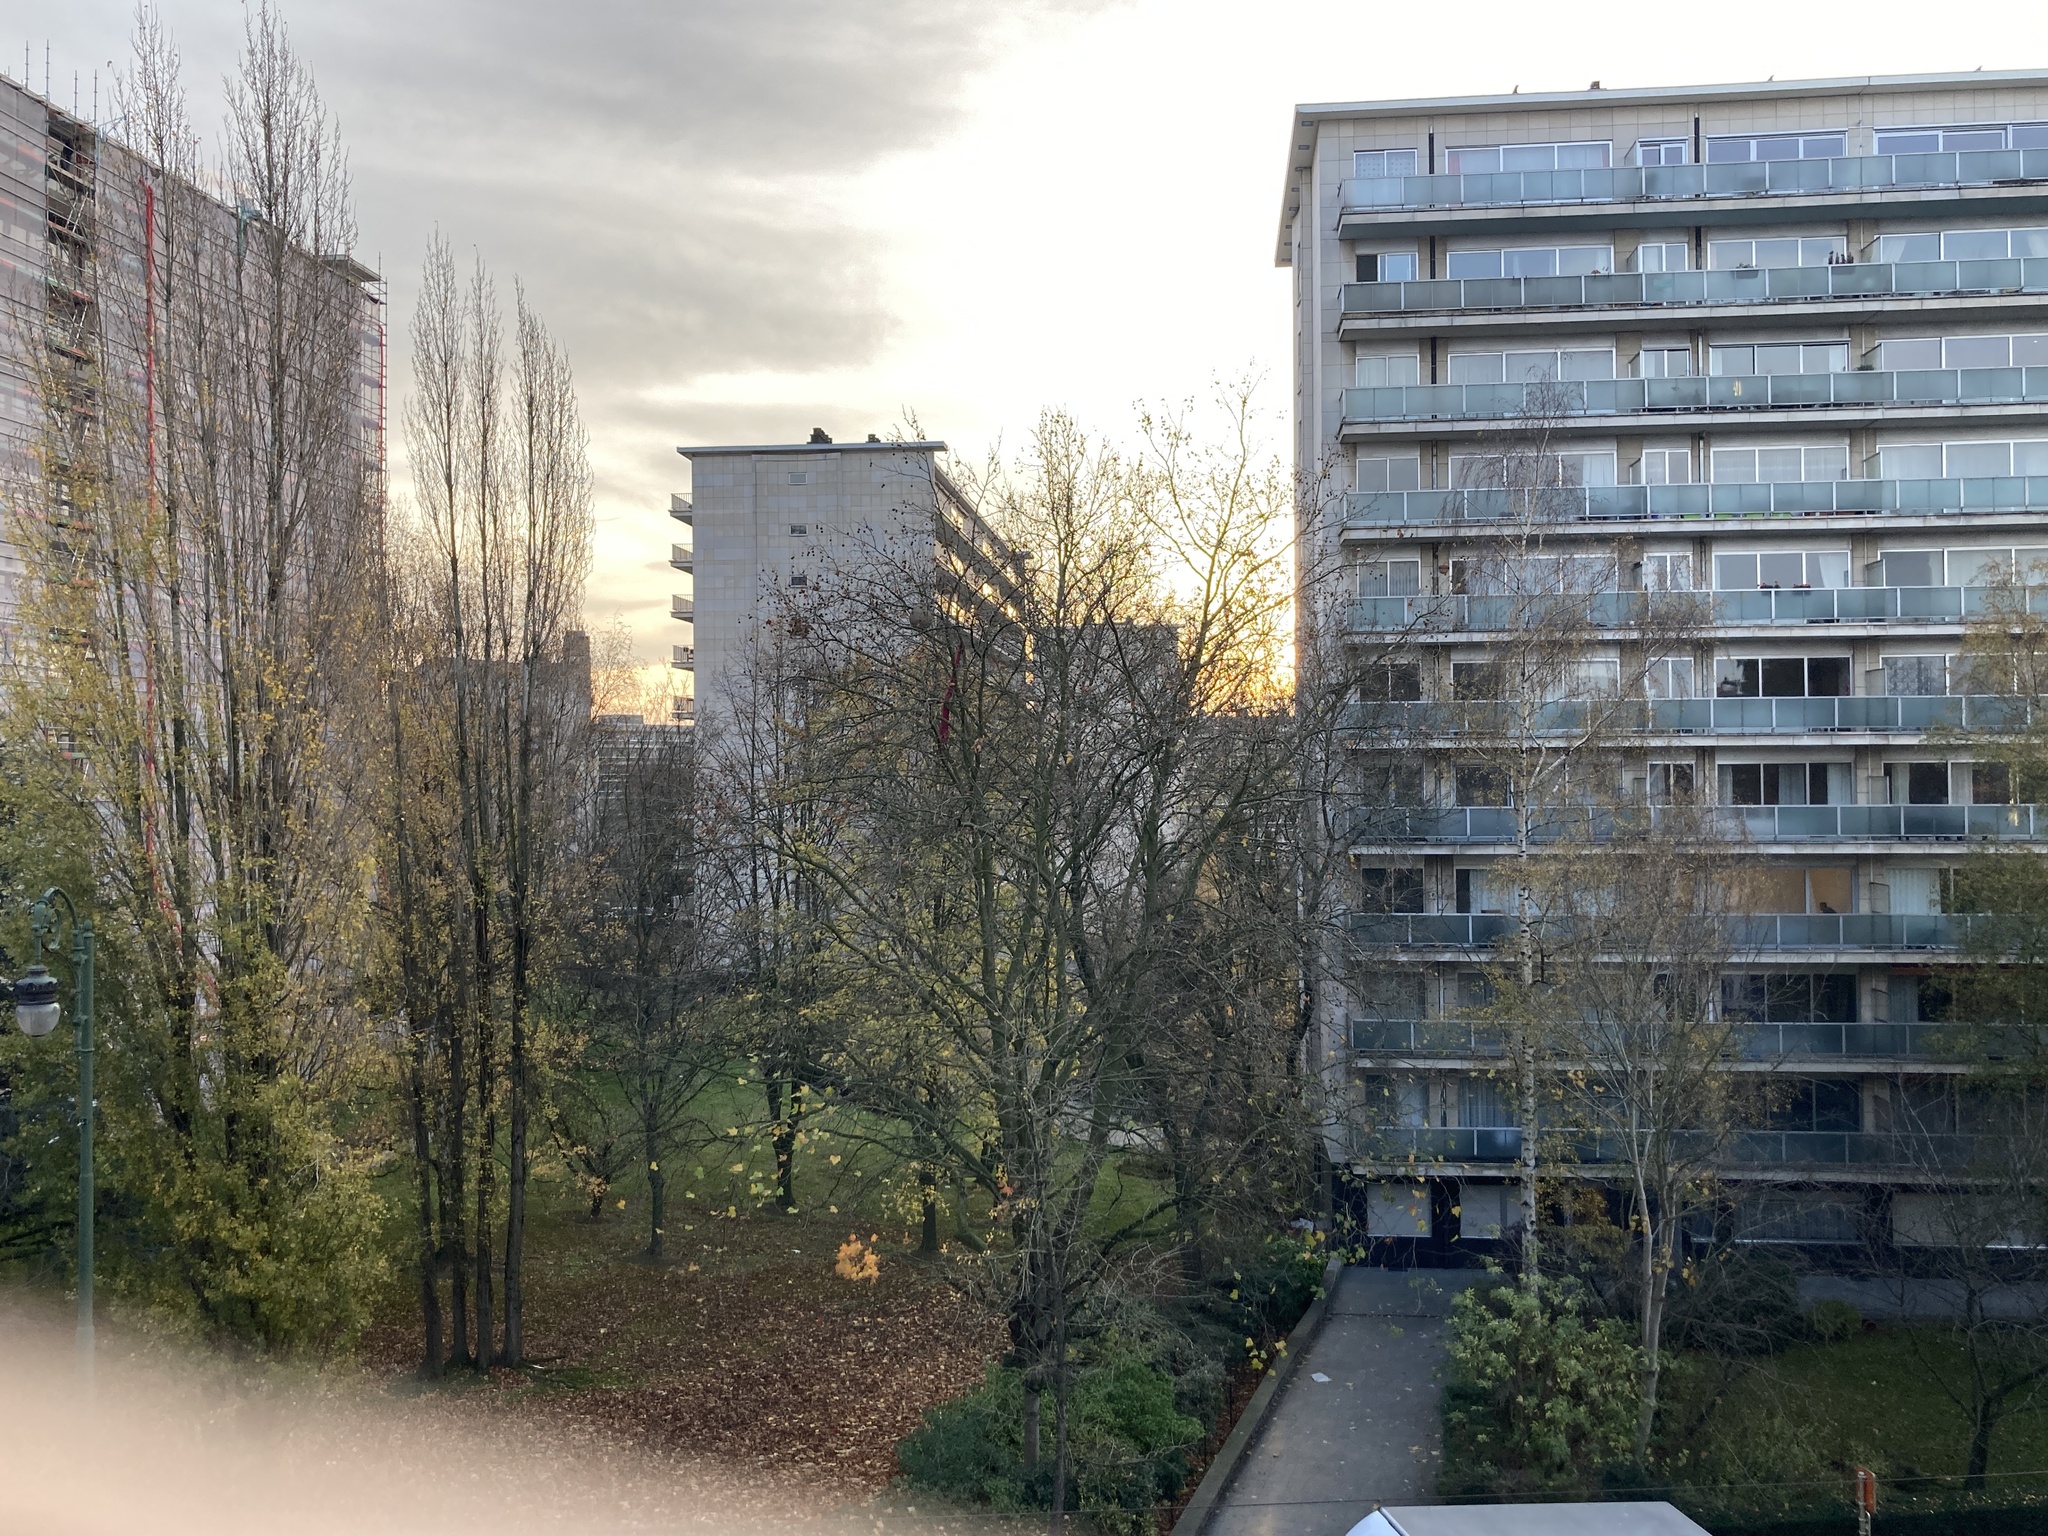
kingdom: Animalia
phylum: Arthropoda
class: Insecta
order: Hymenoptera
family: Vespidae
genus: Vespa
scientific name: Vespa velutina
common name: Asian hornet
